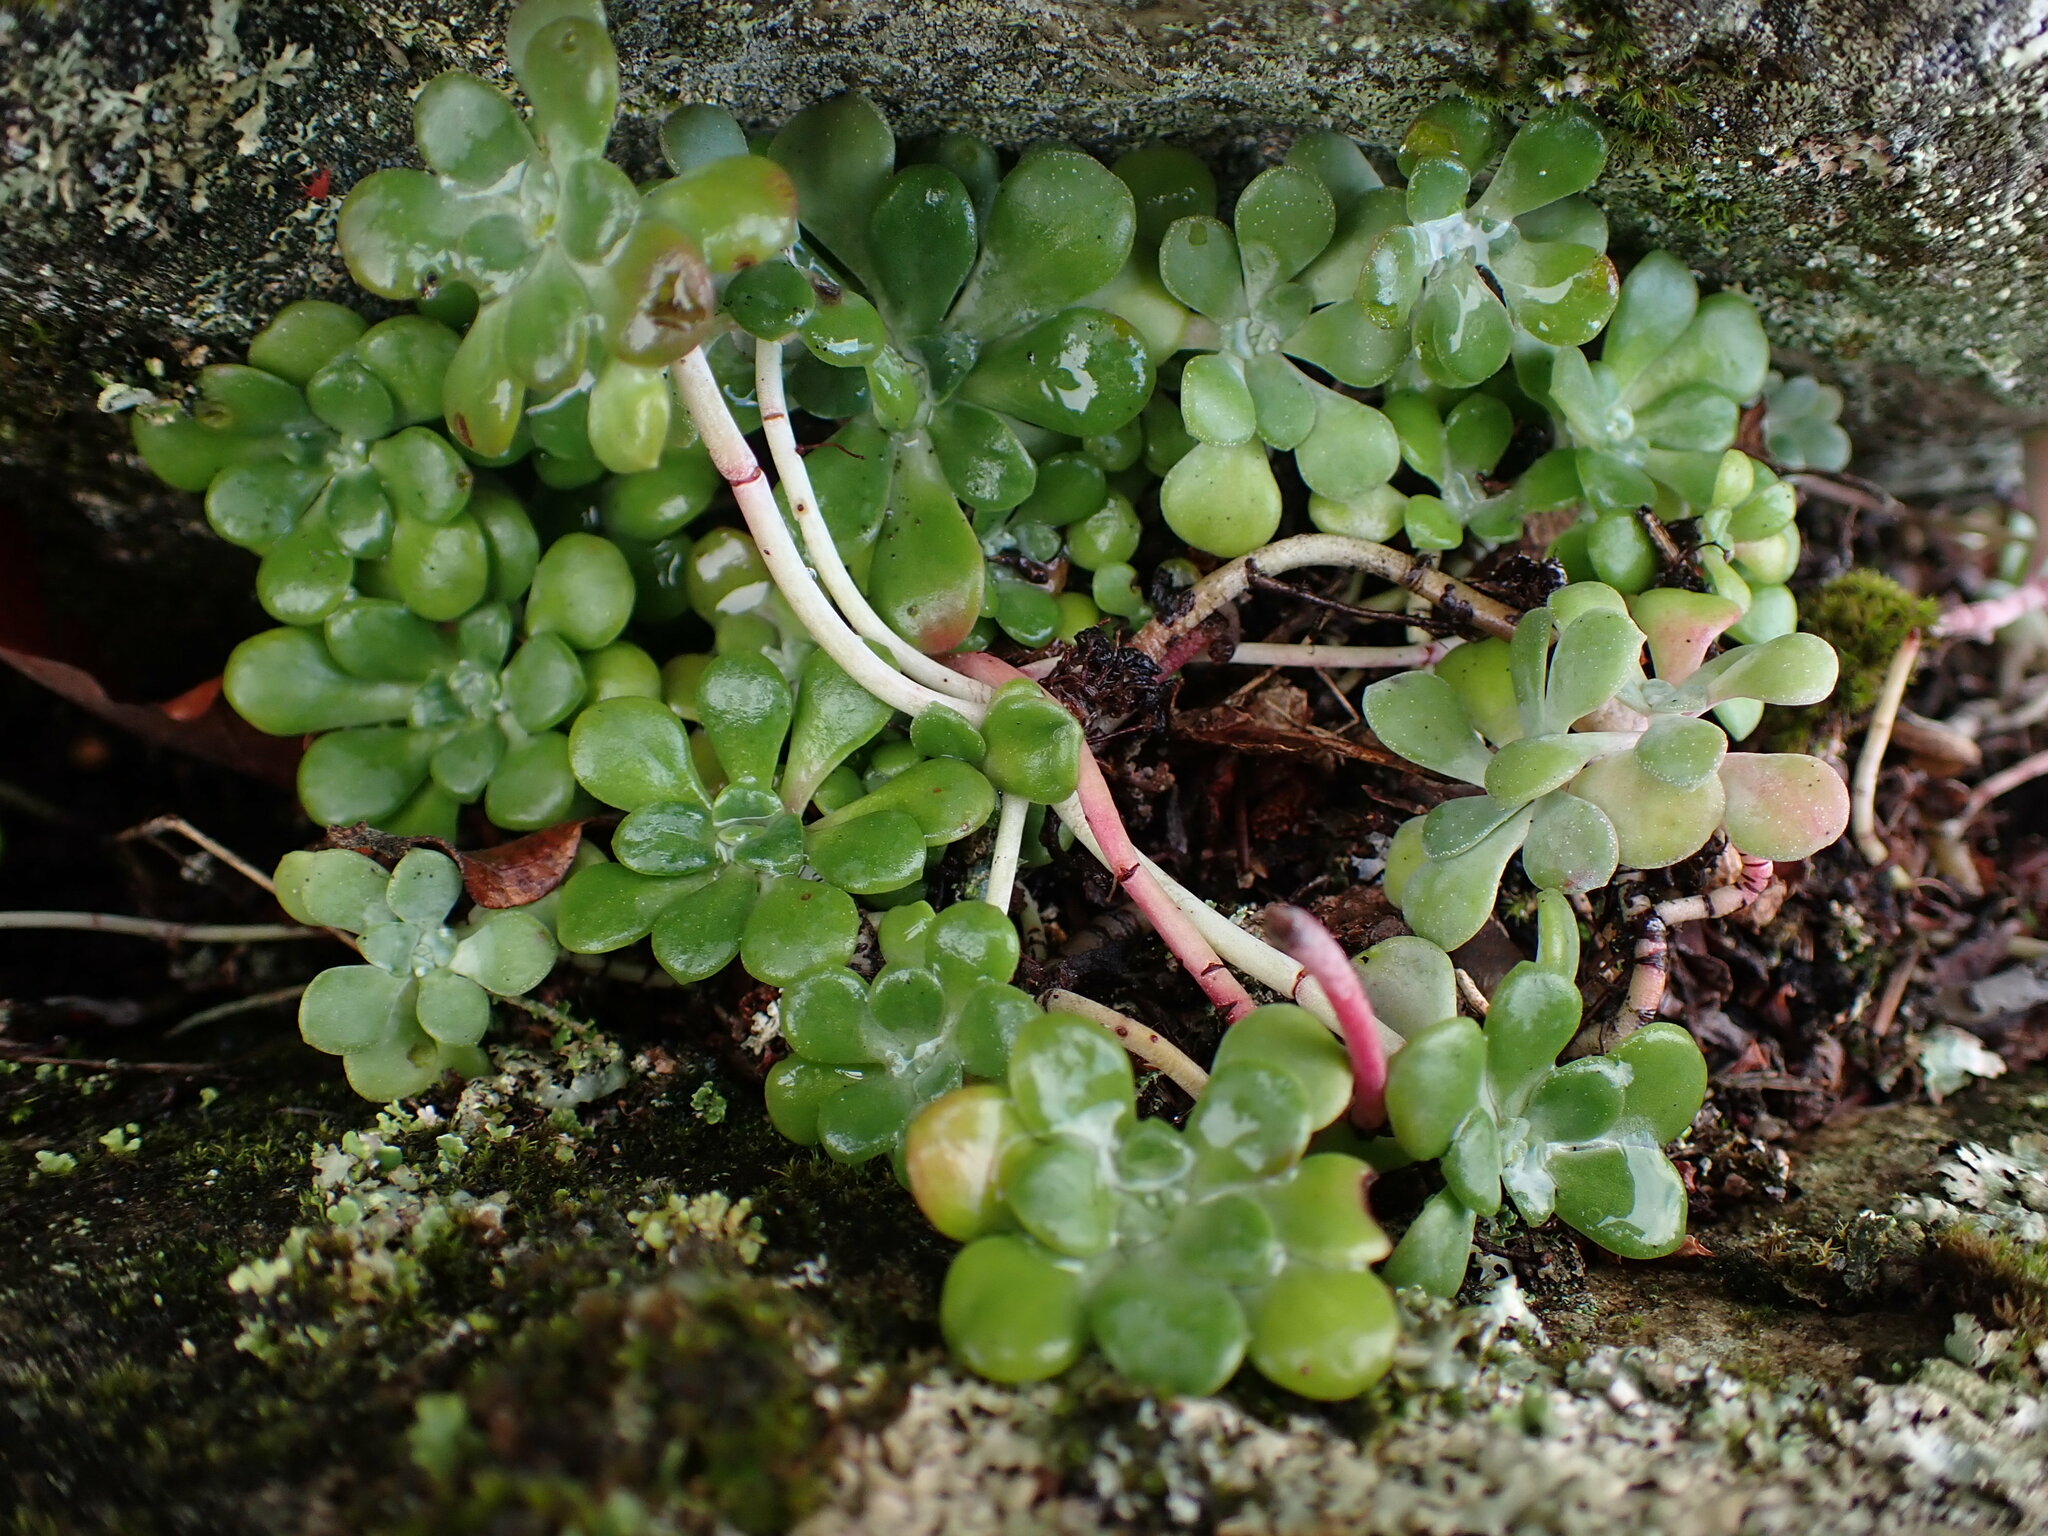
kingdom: Plantae
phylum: Tracheophyta
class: Magnoliopsida
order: Saxifragales
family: Crassulaceae
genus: Sedum
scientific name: Sedum spathulifolium
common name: Colorado stonecrop
